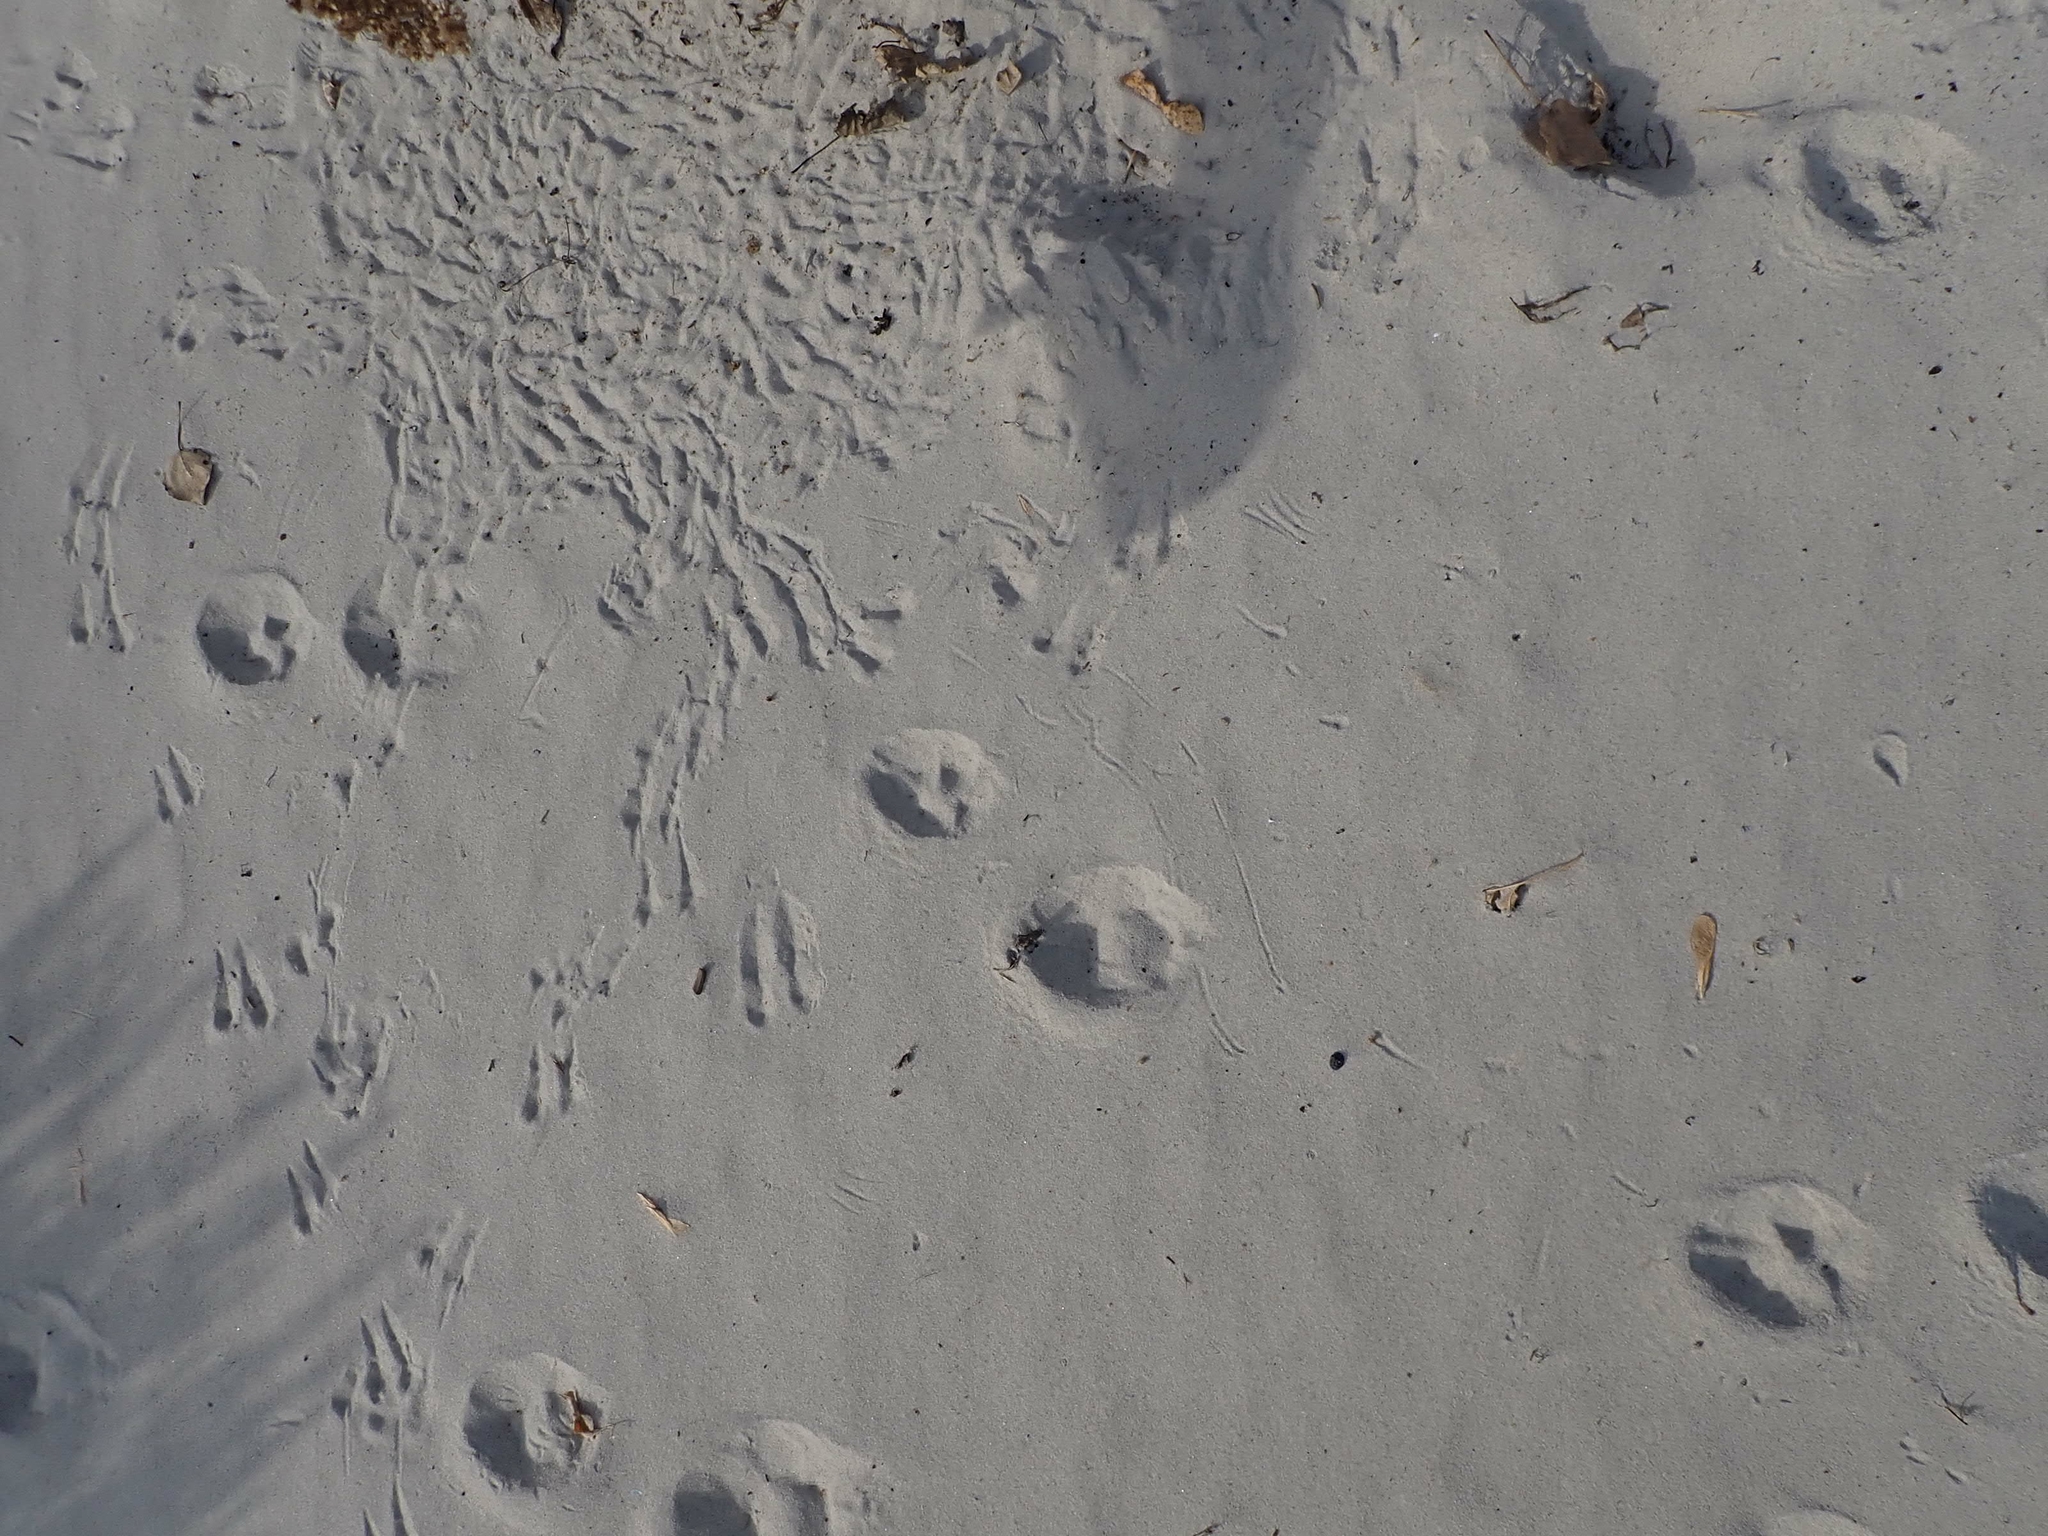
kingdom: Animalia
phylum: Chordata
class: Aves
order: Passeriformes
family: Fringillidae
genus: Acanthis
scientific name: Acanthis flammea
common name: Common redpoll
